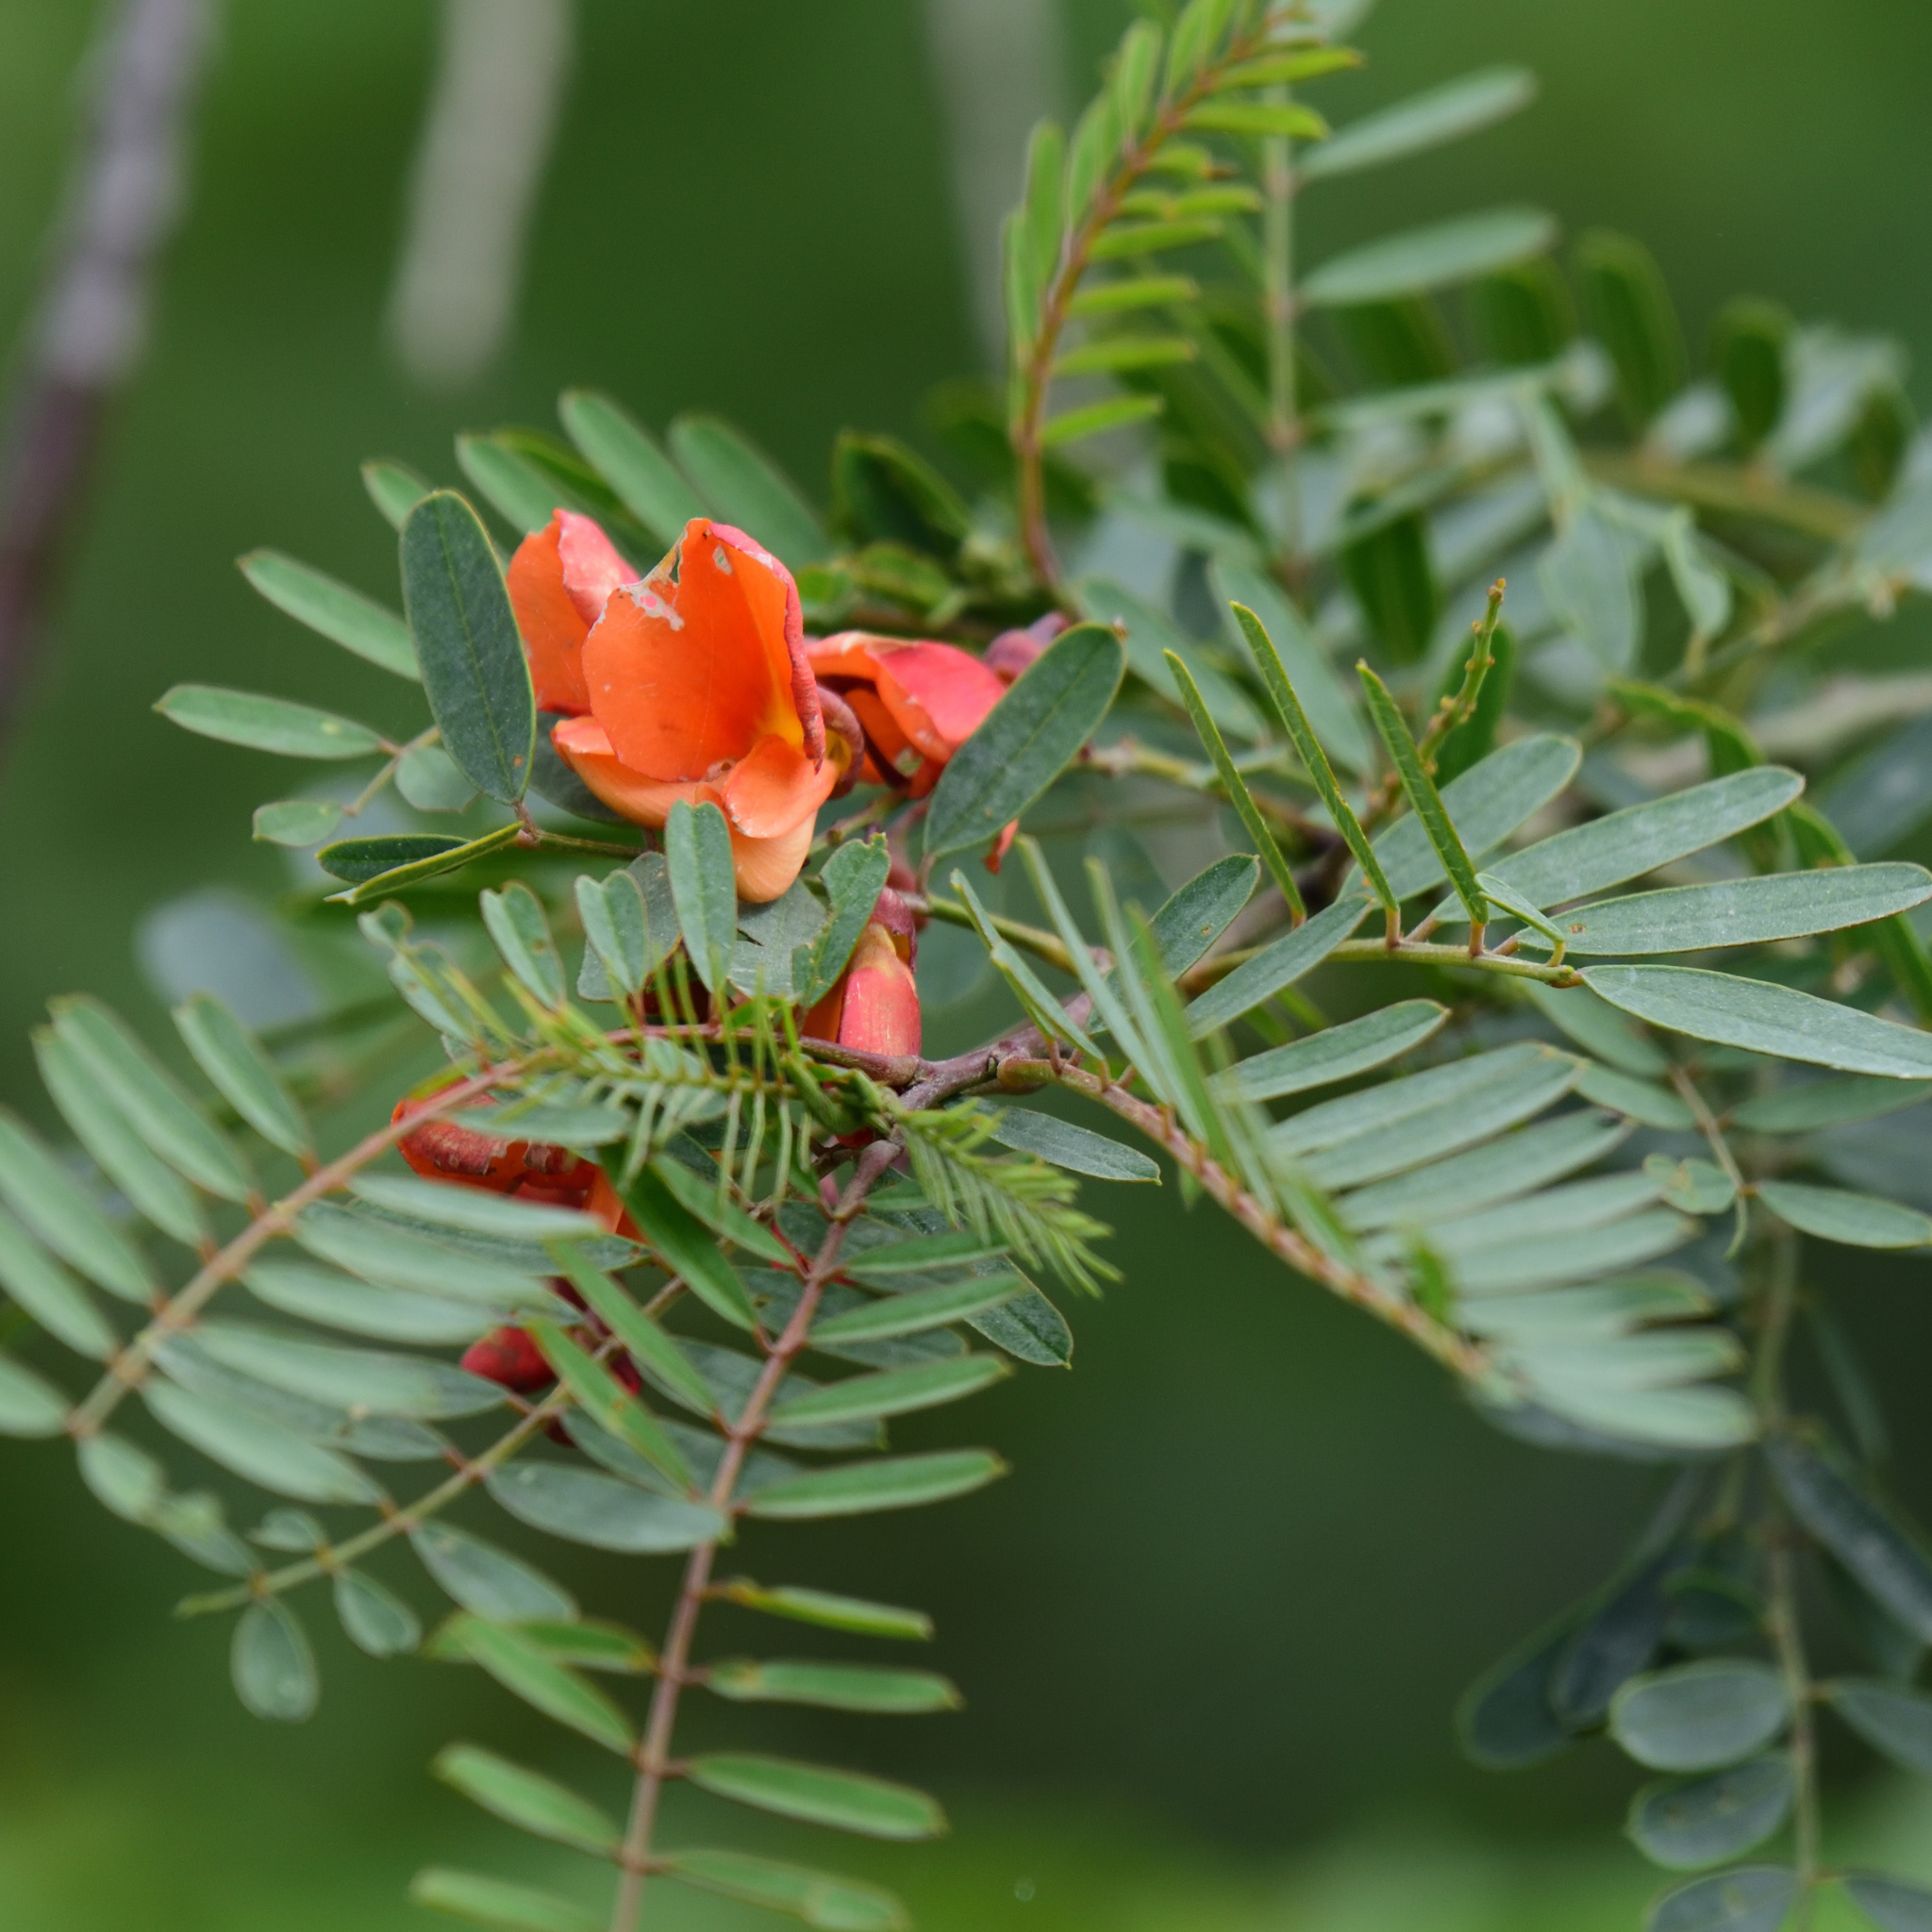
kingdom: Plantae
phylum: Tracheophyta
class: Magnoliopsida
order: Fabales
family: Fabaceae
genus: Sesbania
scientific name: Sesbania punicea
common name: Rattlebox
